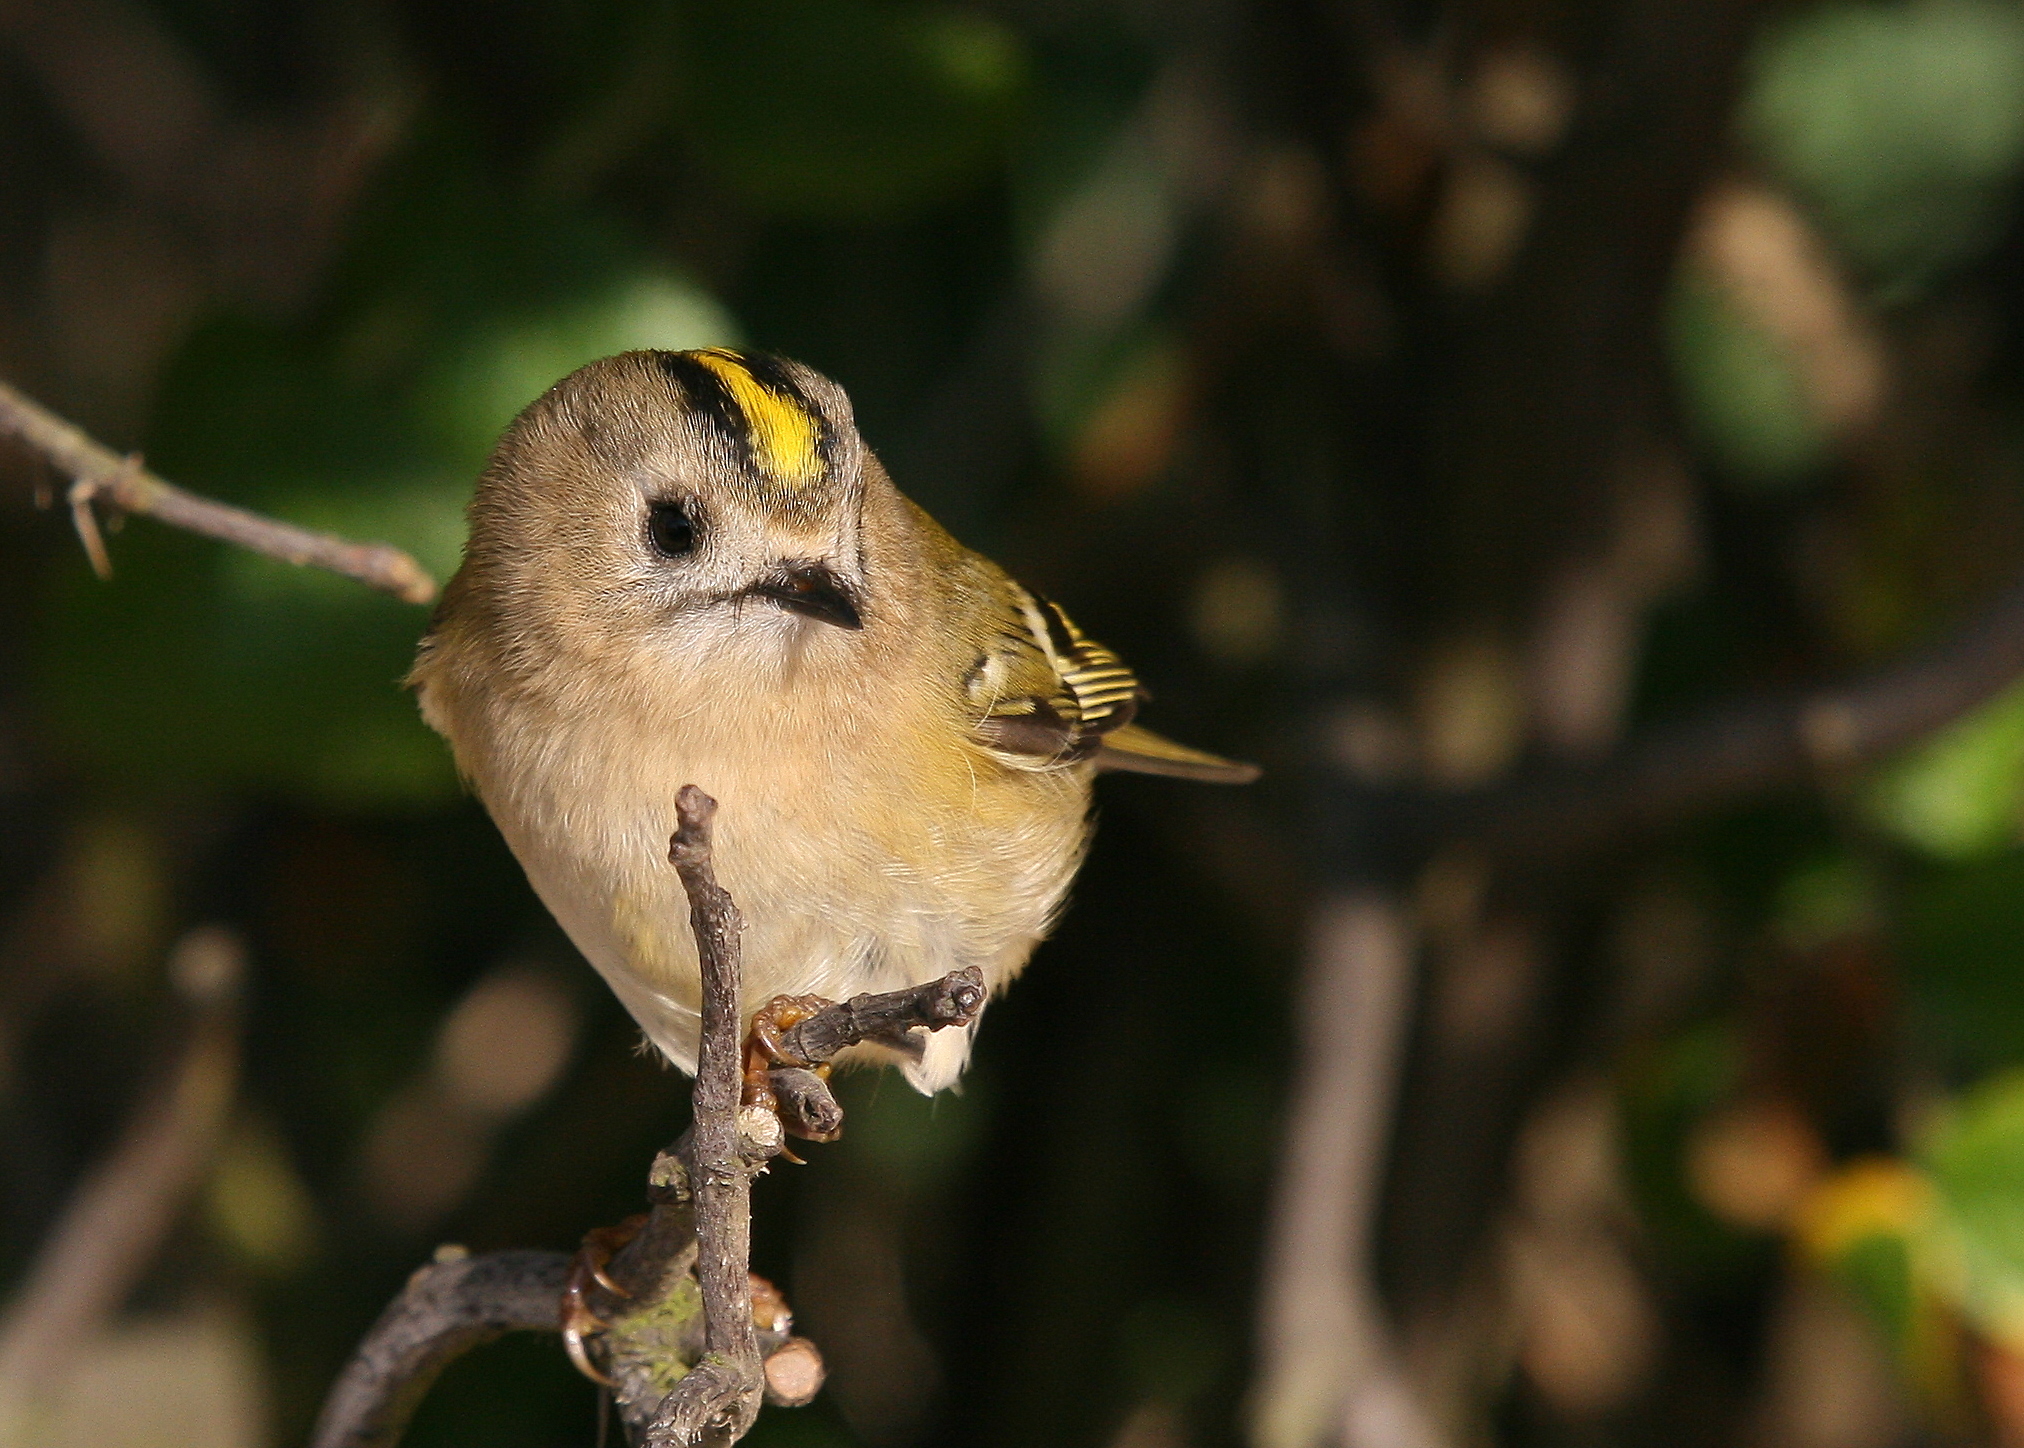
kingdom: Animalia
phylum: Chordata
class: Aves
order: Passeriformes
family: Regulidae
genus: Regulus
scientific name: Regulus regulus
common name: Goldcrest
